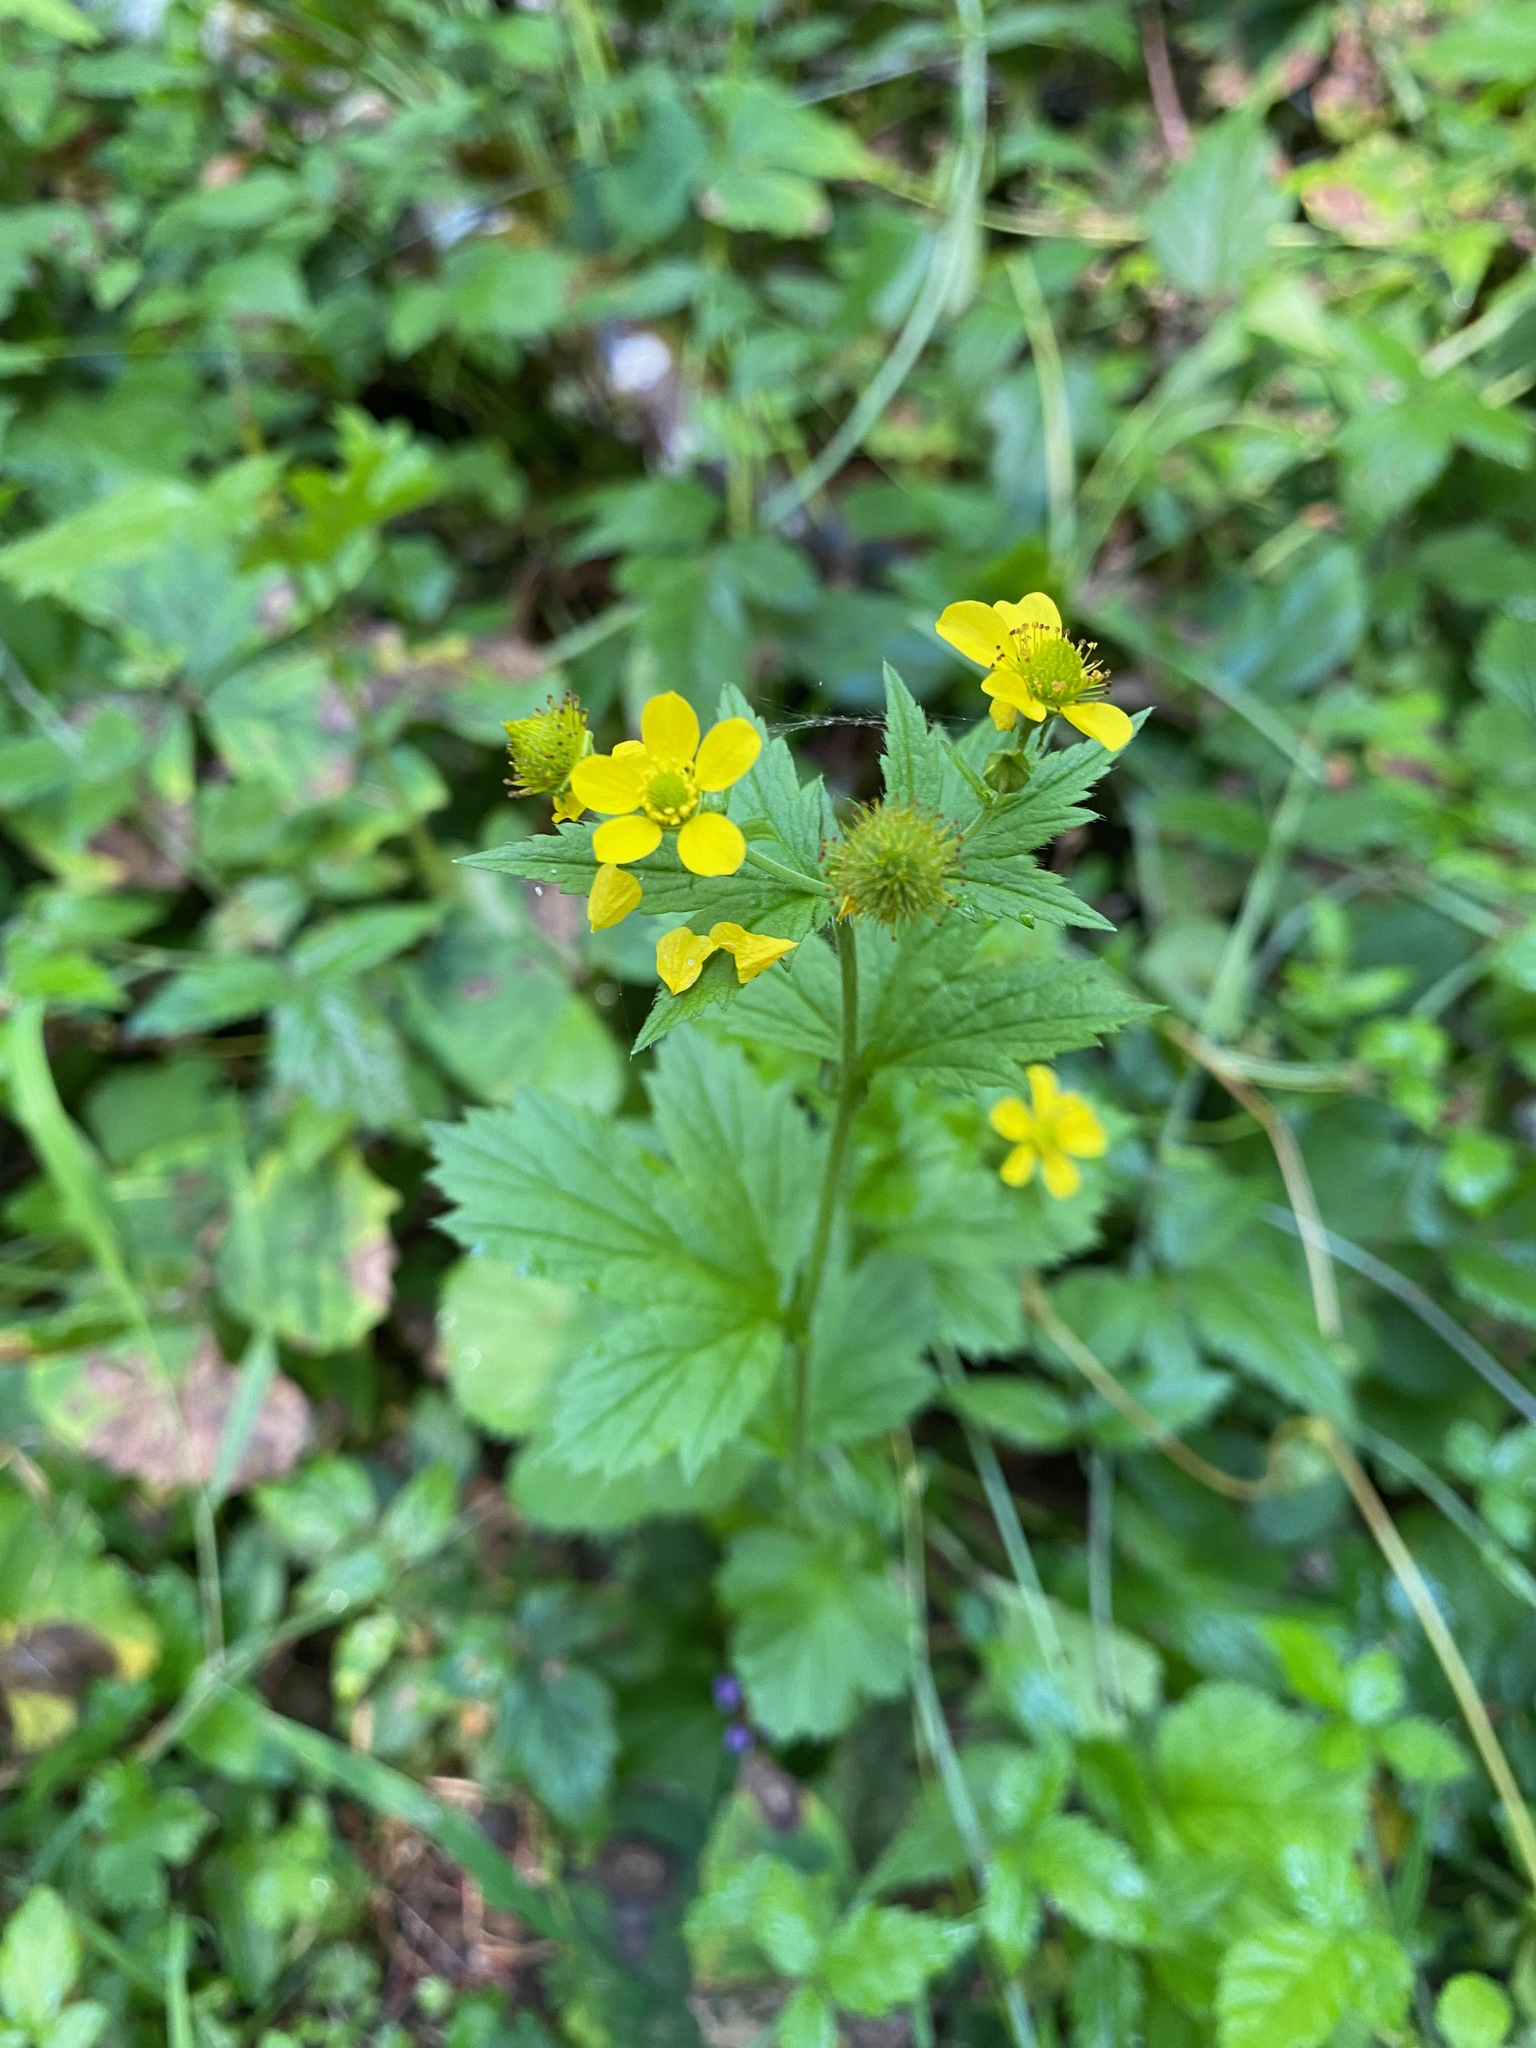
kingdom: Plantae
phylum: Tracheophyta
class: Magnoliopsida
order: Rosales
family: Rosaceae
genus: Geum
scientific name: Geum macrophyllum
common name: Large-leaved avens
